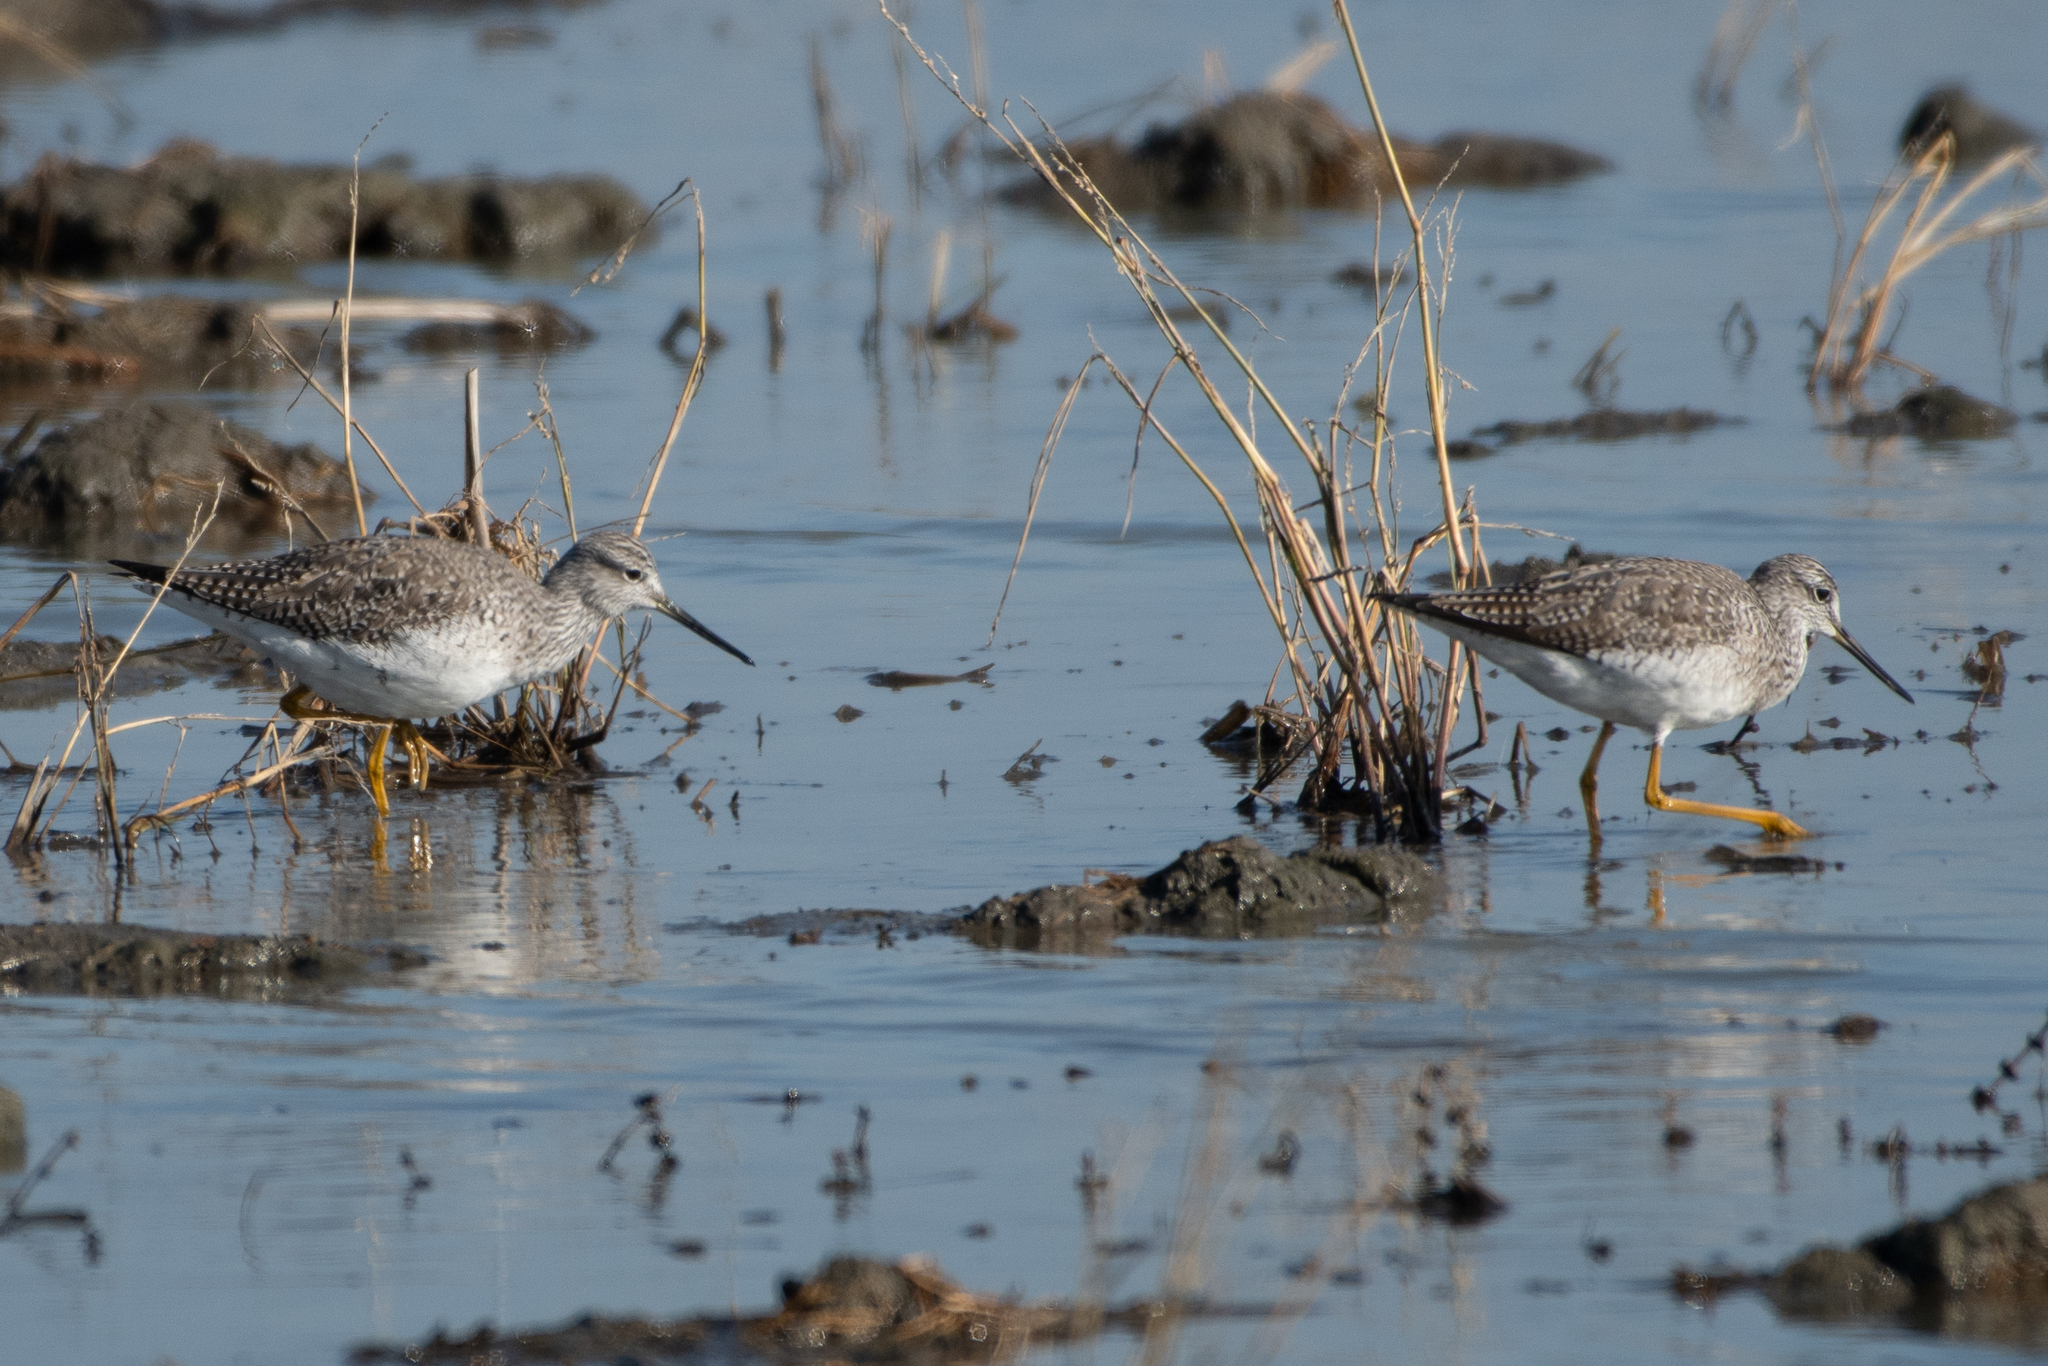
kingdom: Animalia
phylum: Chordata
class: Aves
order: Charadriiformes
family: Scolopacidae
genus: Tringa
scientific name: Tringa melanoleuca
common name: Greater yellowlegs
